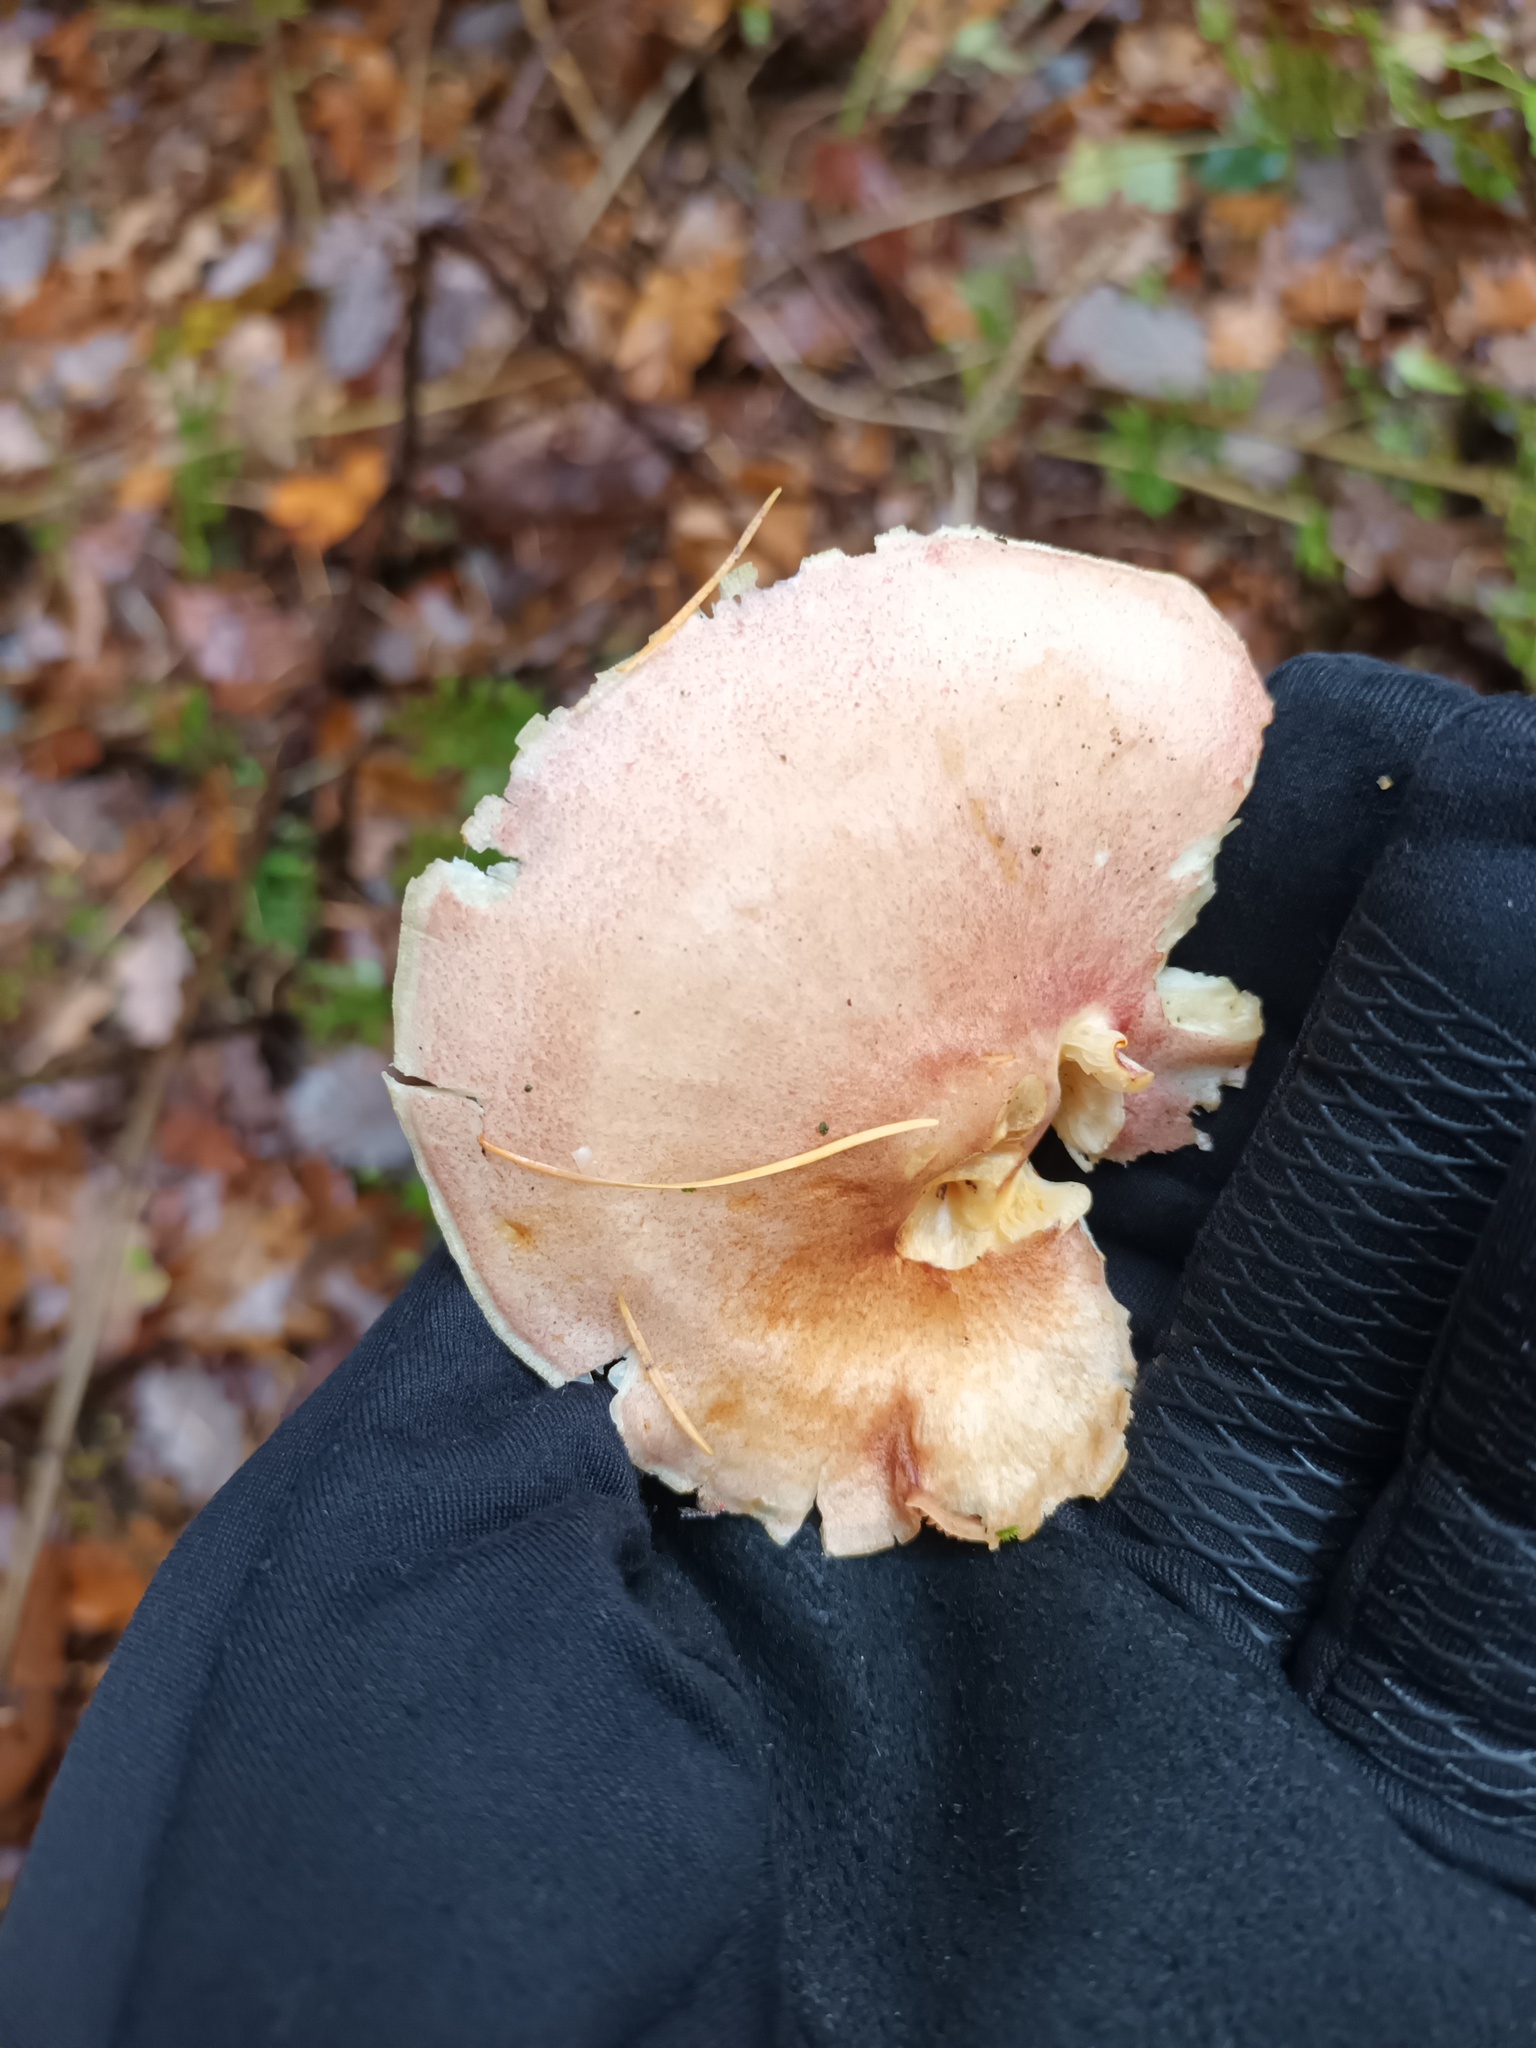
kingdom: Fungi
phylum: Basidiomycota
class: Agaricomycetes
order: Agaricales
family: Tricholomataceae
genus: Tricholomopsis
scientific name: Tricholomopsis rutilans
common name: Plums and custard
